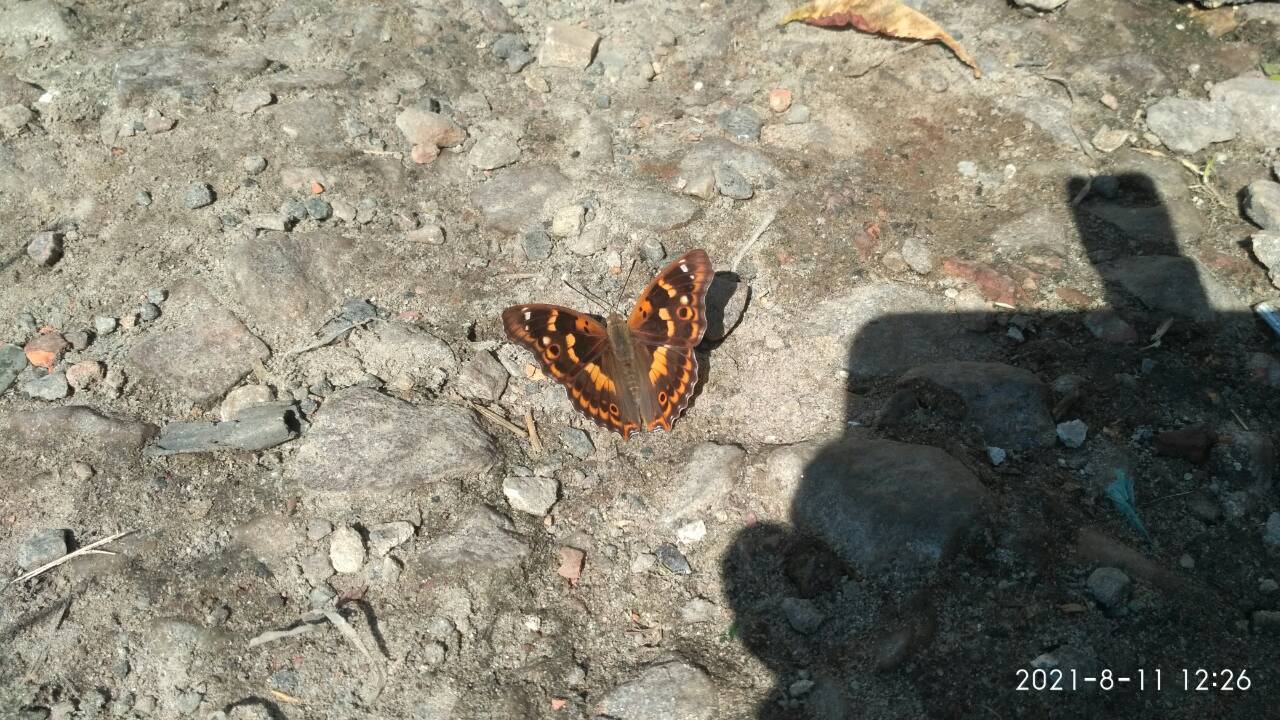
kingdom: Animalia
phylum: Arthropoda
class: Insecta
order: Lepidoptera
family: Nymphalidae
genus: Apatura
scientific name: Apatura ilia
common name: Lesser purple emperor
